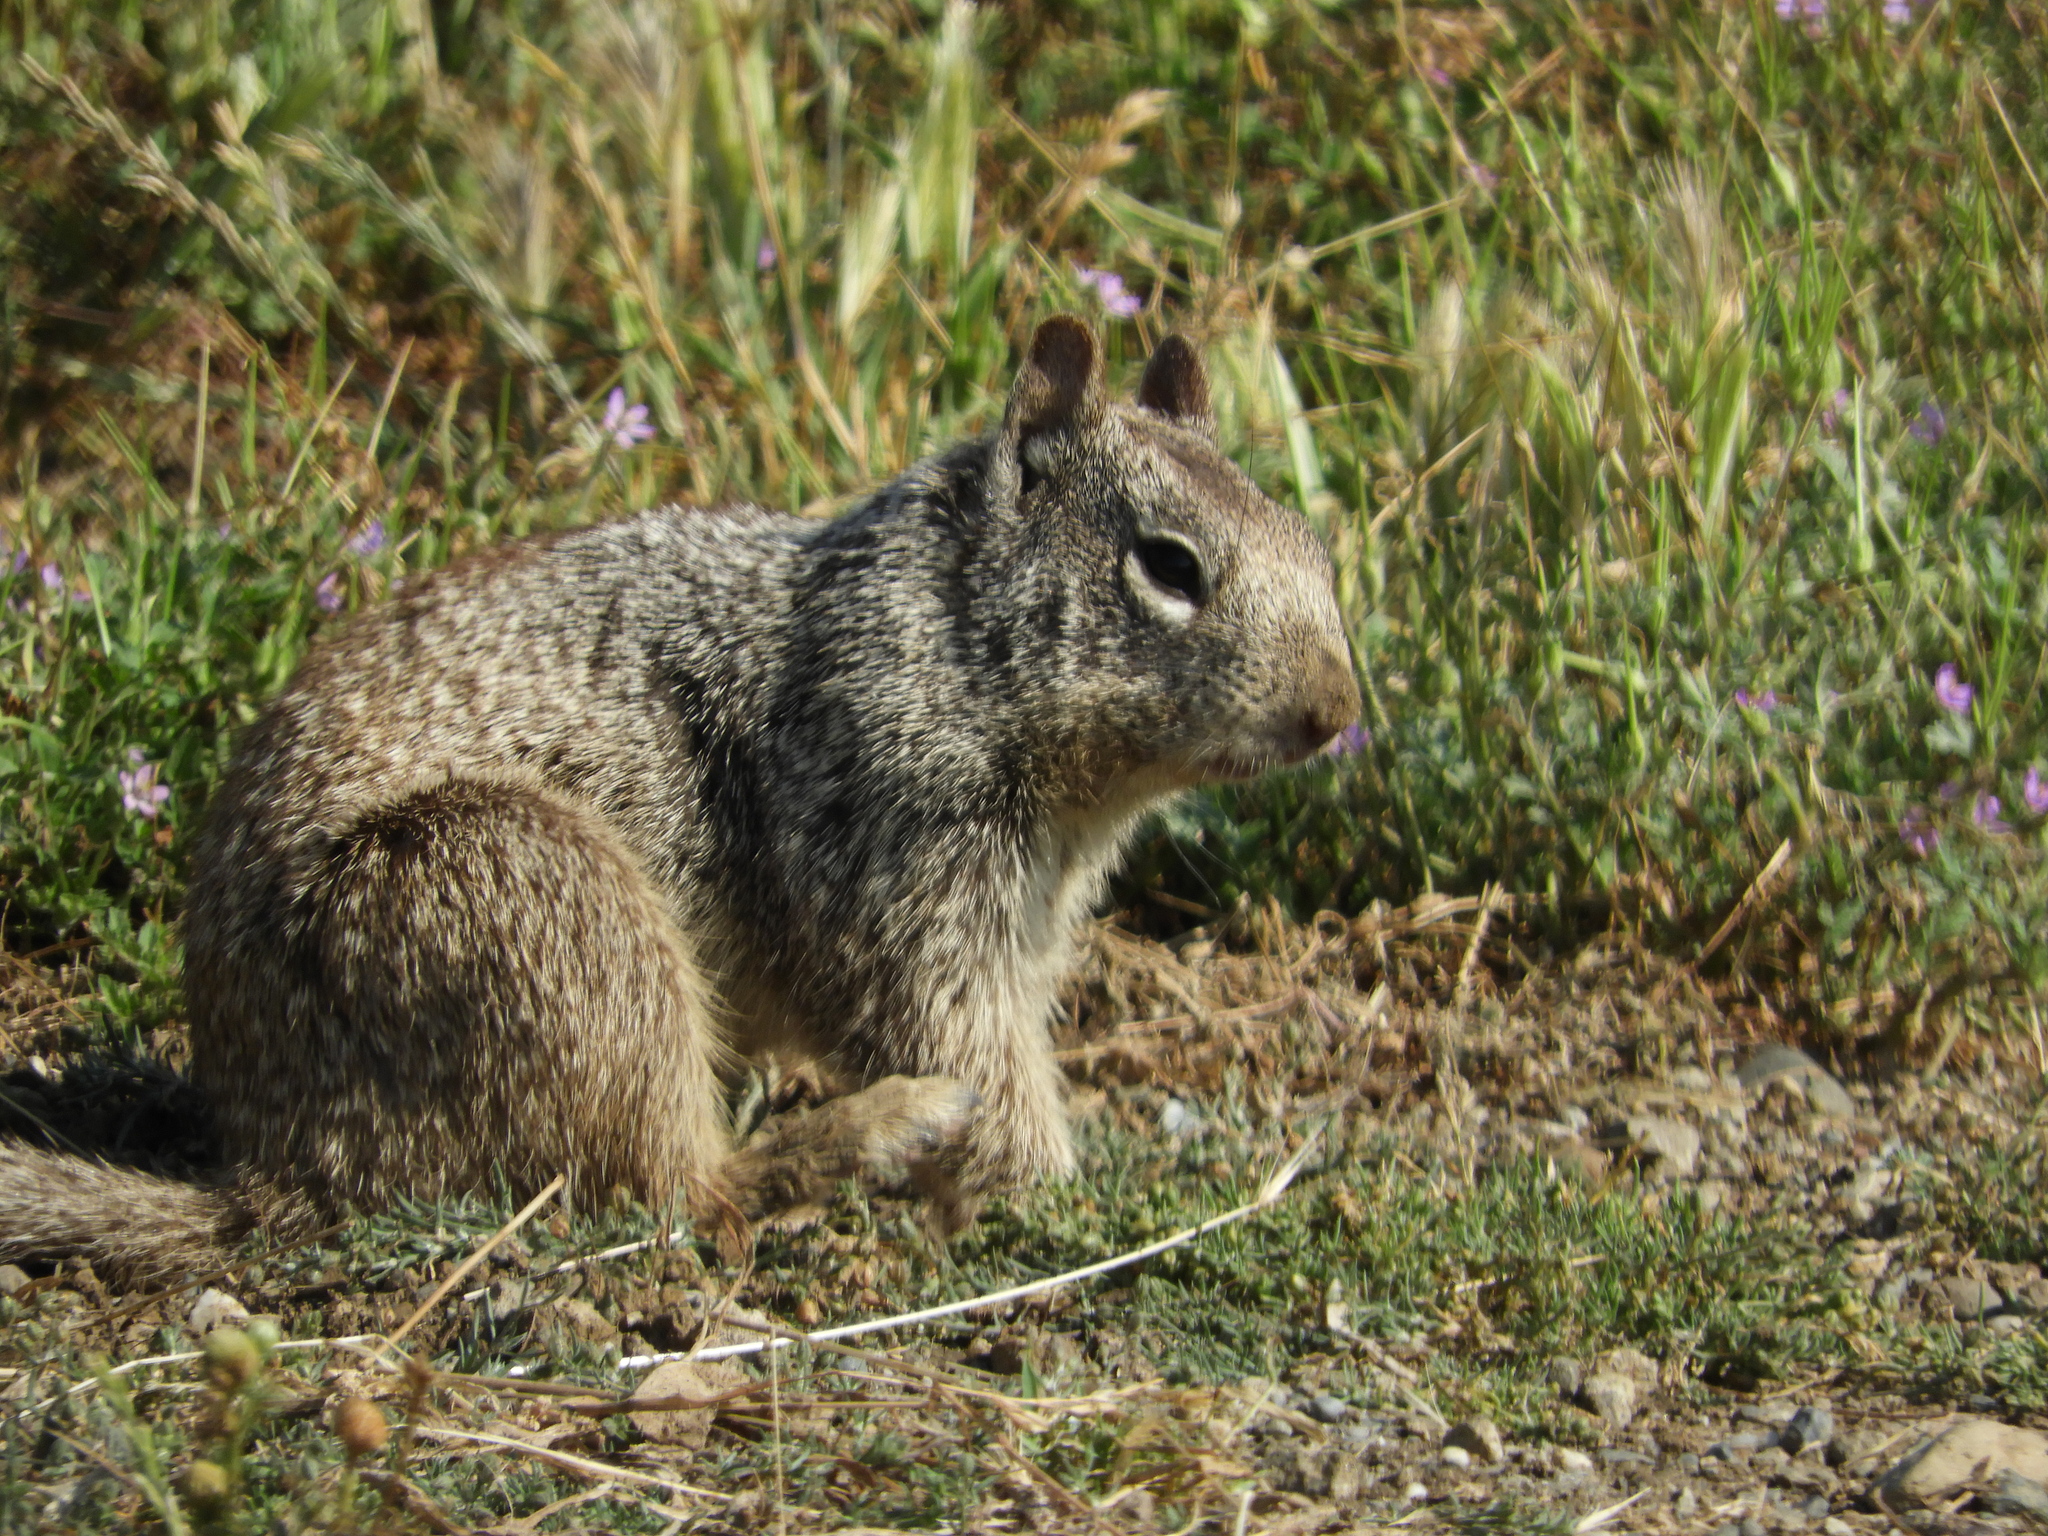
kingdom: Animalia
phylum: Chordata
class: Mammalia
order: Rodentia
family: Sciuridae
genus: Otospermophilus
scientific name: Otospermophilus beecheyi
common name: California ground squirrel
